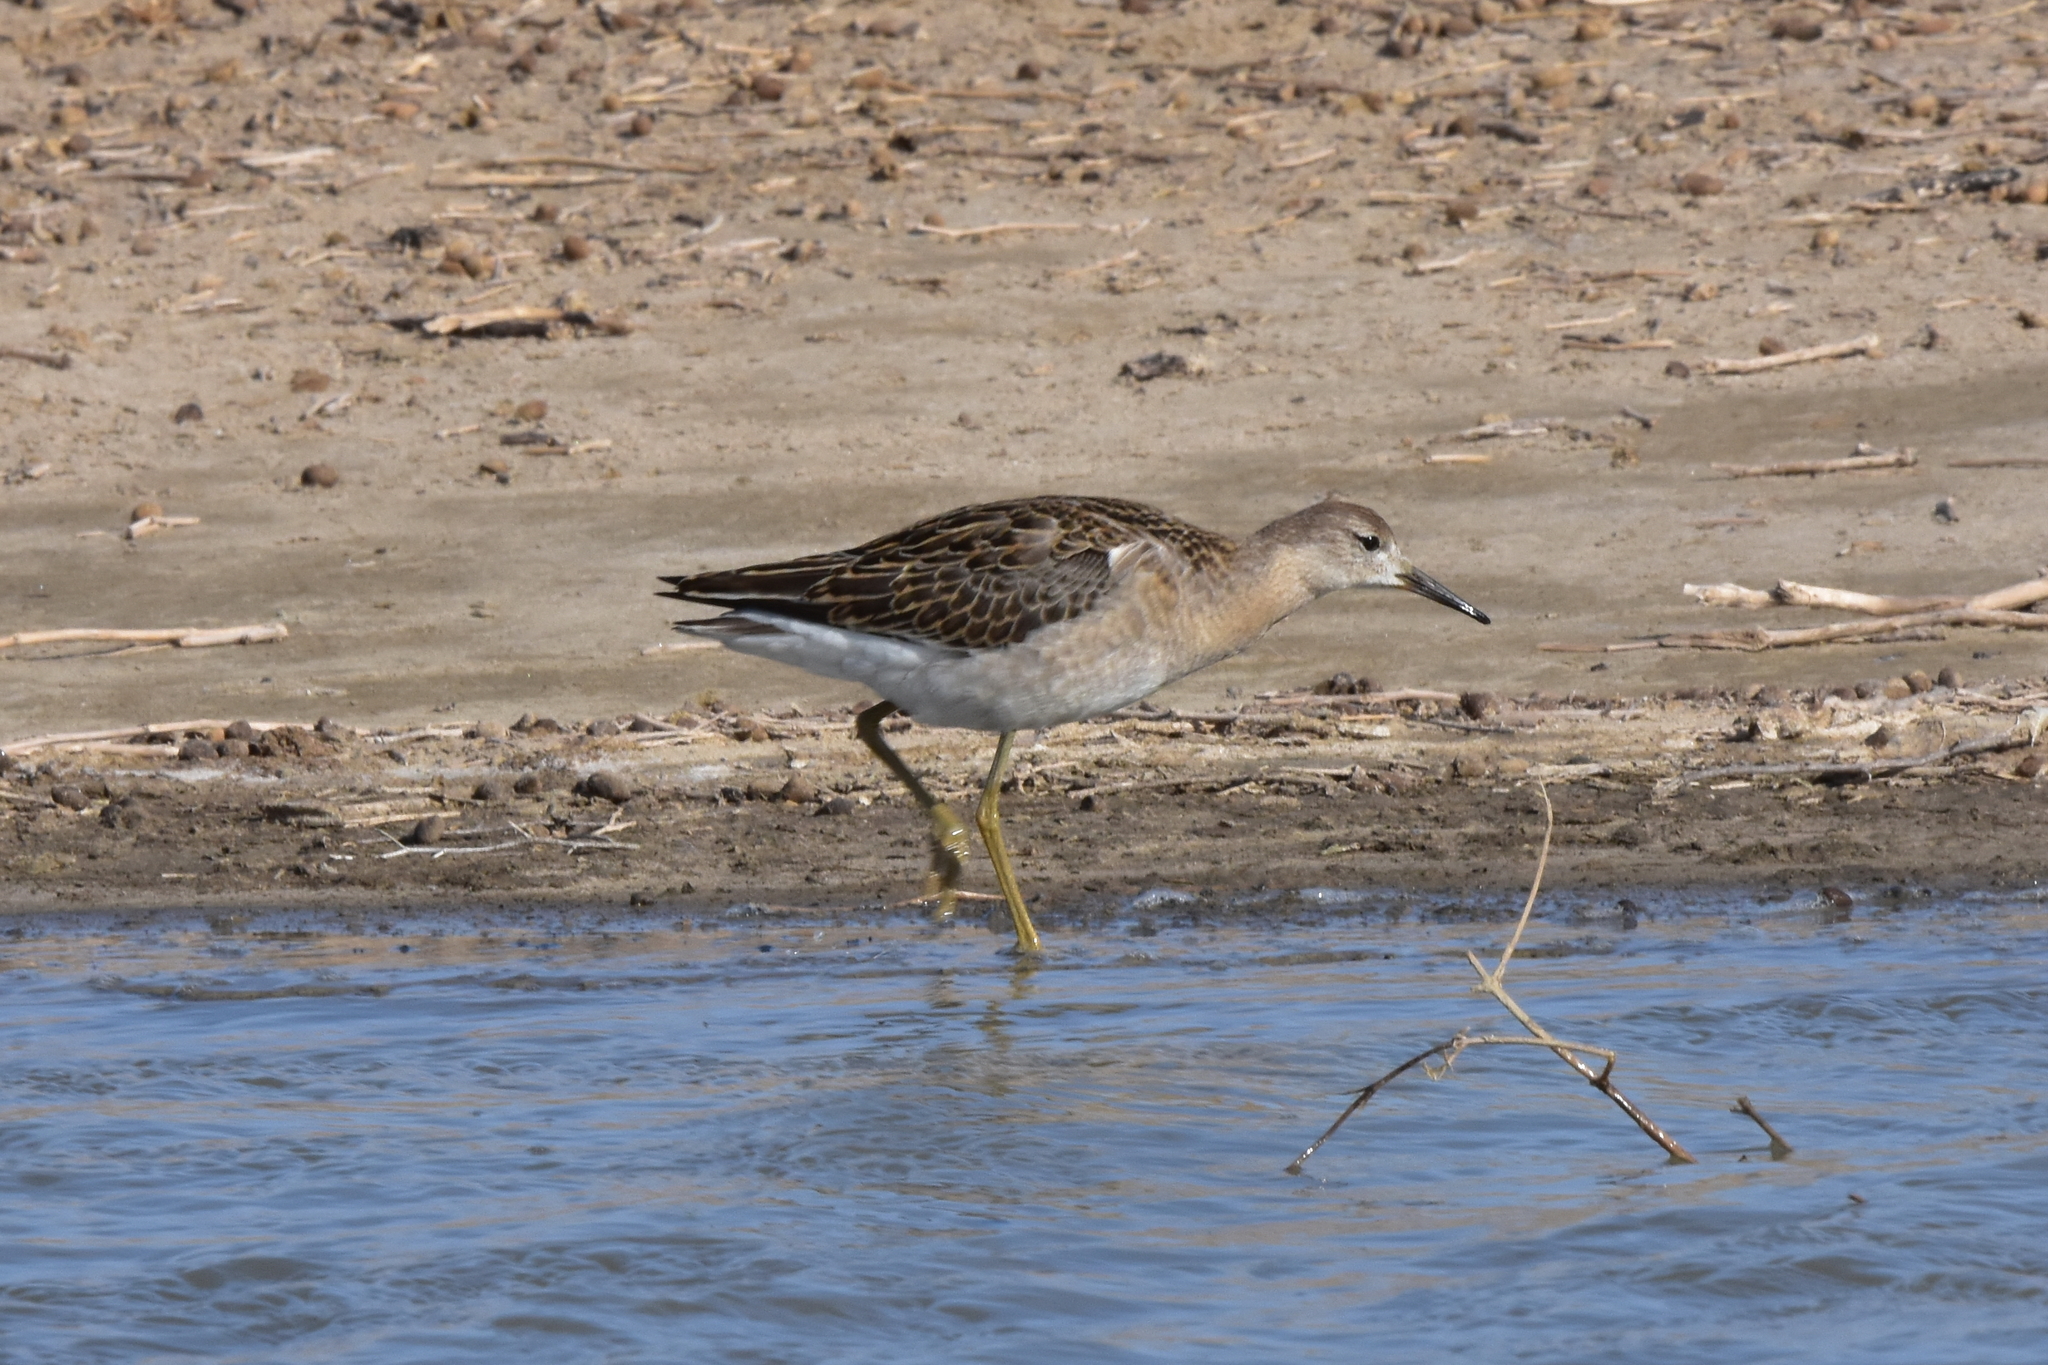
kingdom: Animalia
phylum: Chordata
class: Aves
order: Charadriiformes
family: Scolopacidae
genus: Calidris
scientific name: Calidris pugnax
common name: Ruff
